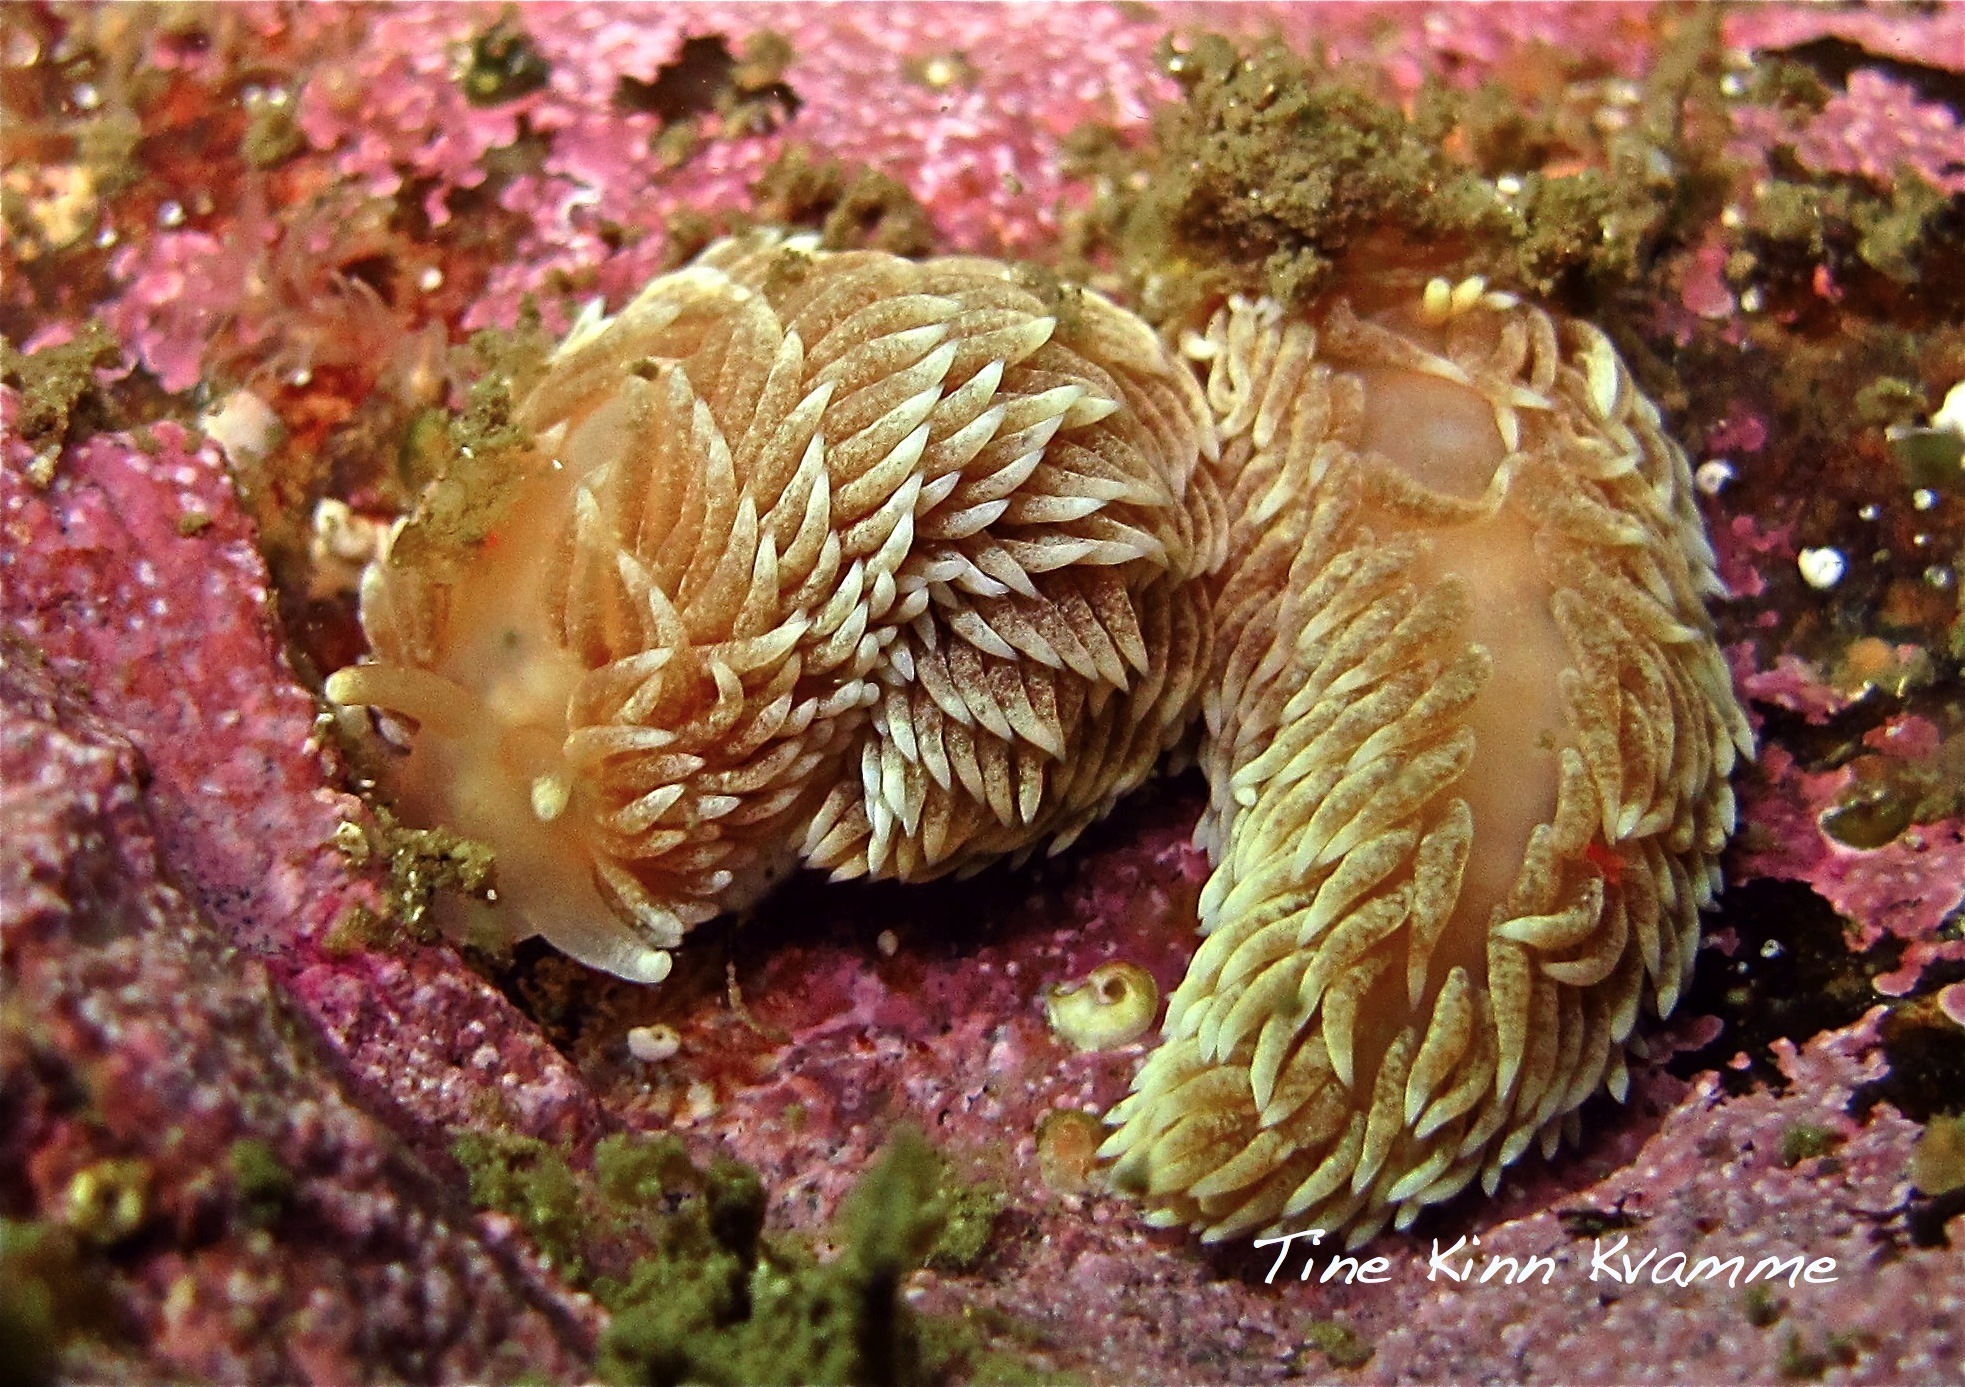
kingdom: Animalia
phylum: Mollusca
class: Gastropoda
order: Nudibranchia
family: Aeolidiidae
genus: Aeolidiella
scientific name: Aeolidiella glauca
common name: Orange-brown aeolid
